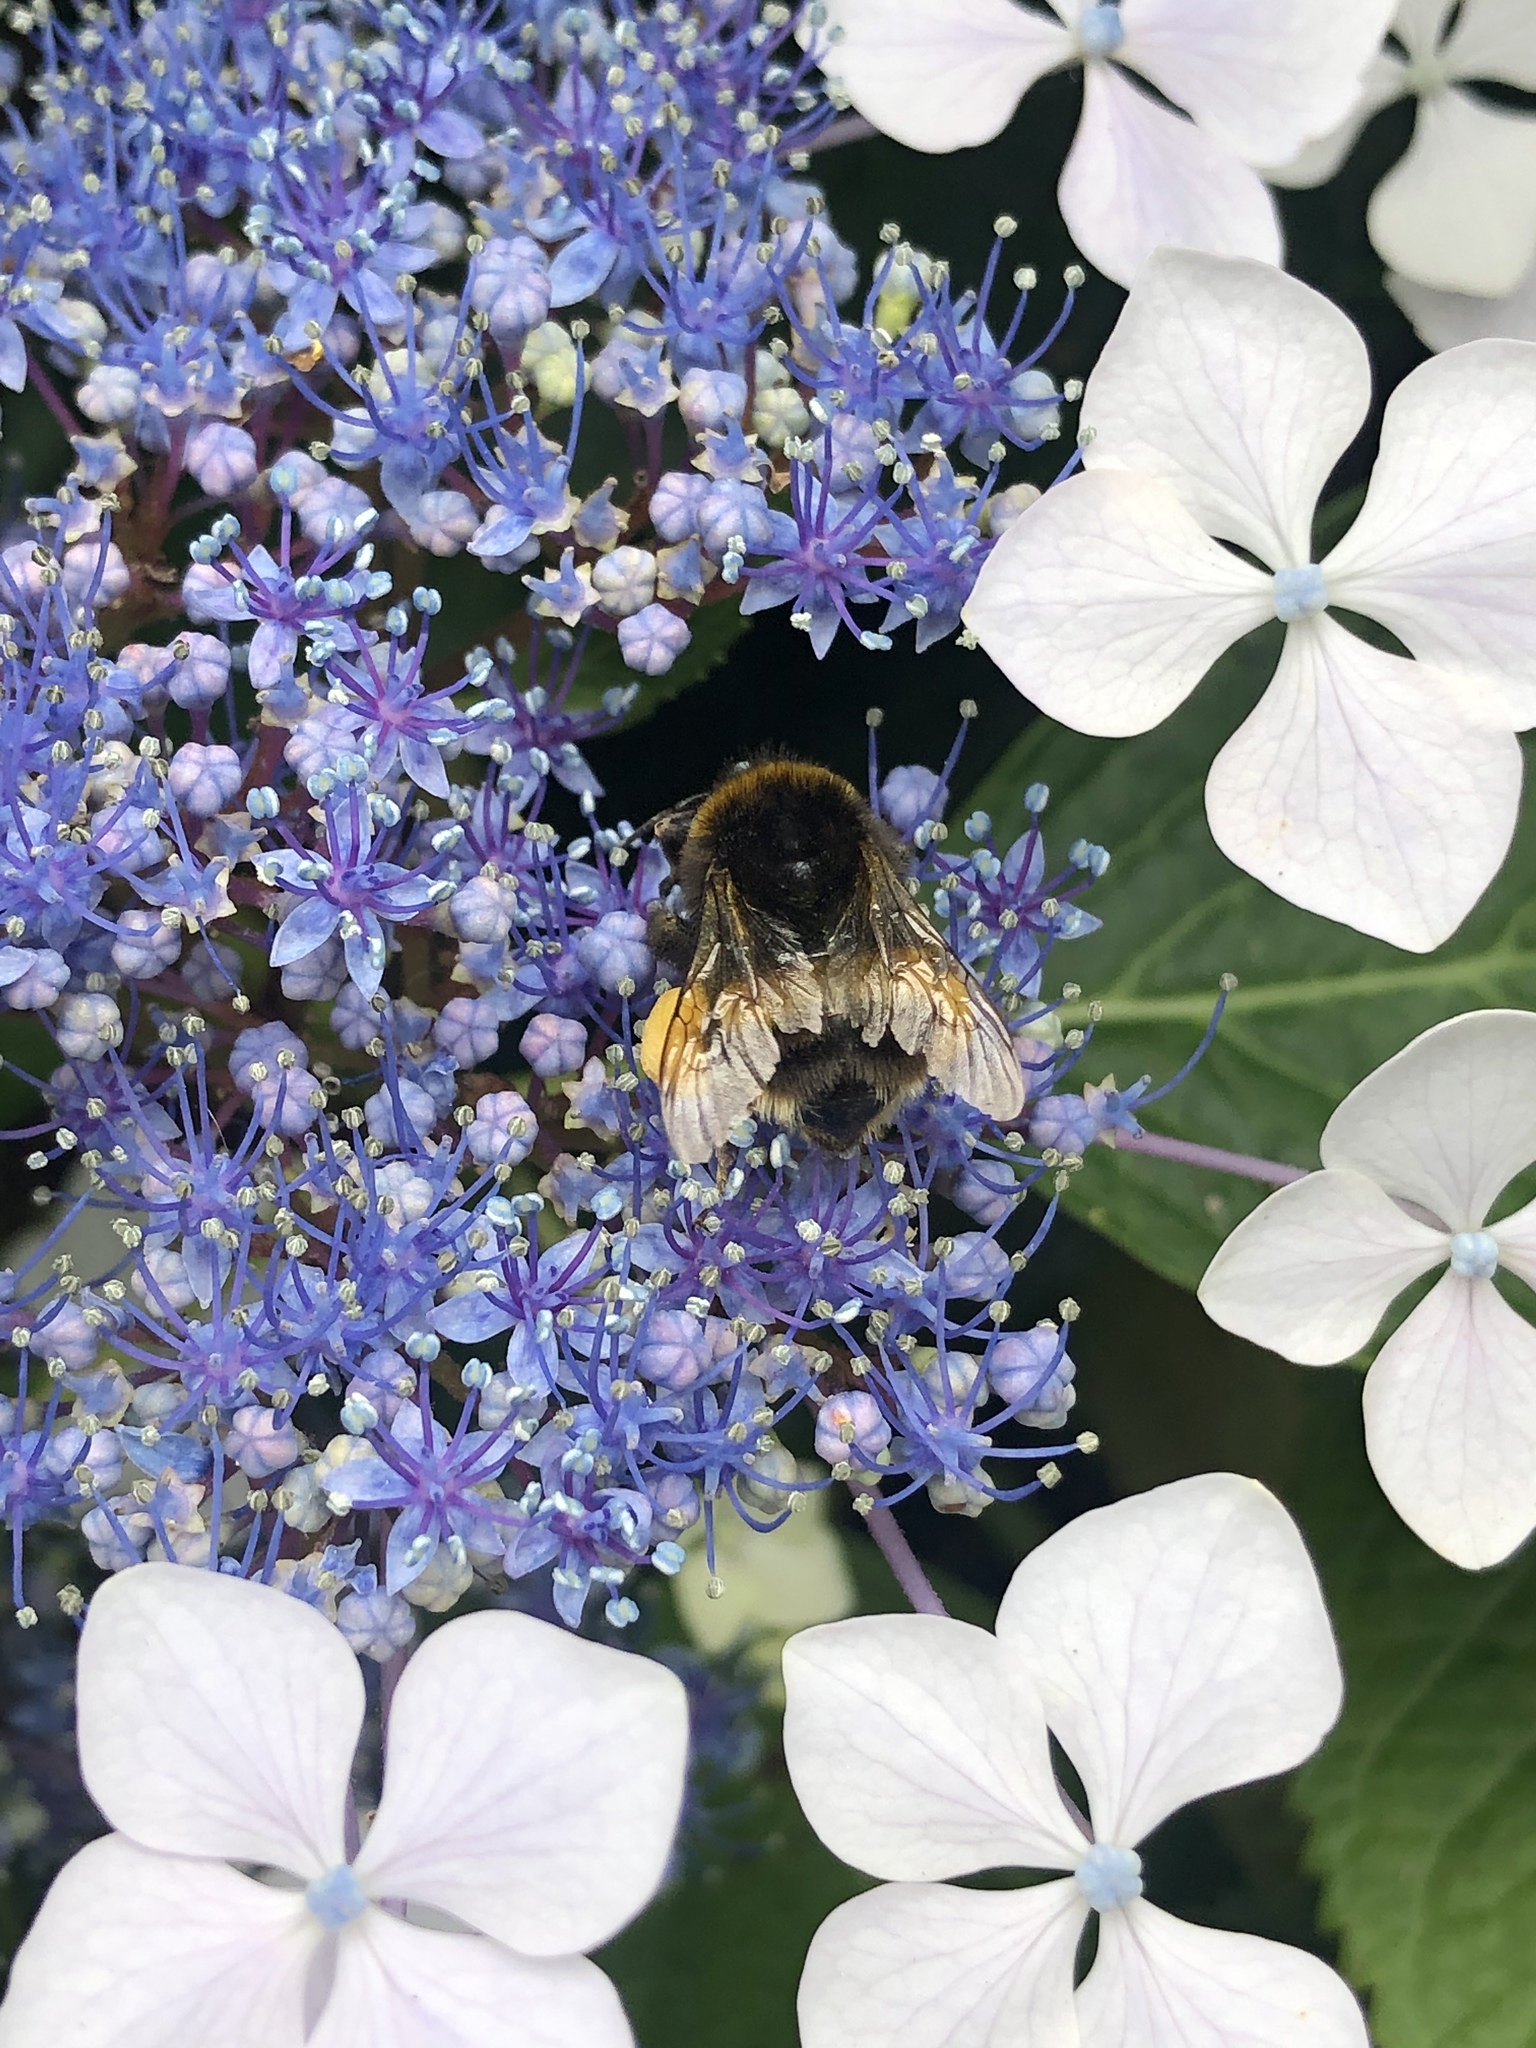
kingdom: Animalia
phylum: Arthropoda
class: Insecta
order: Hymenoptera
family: Apidae
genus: Bombus
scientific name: Bombus terrestris
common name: Buff-tailed bumblebee
